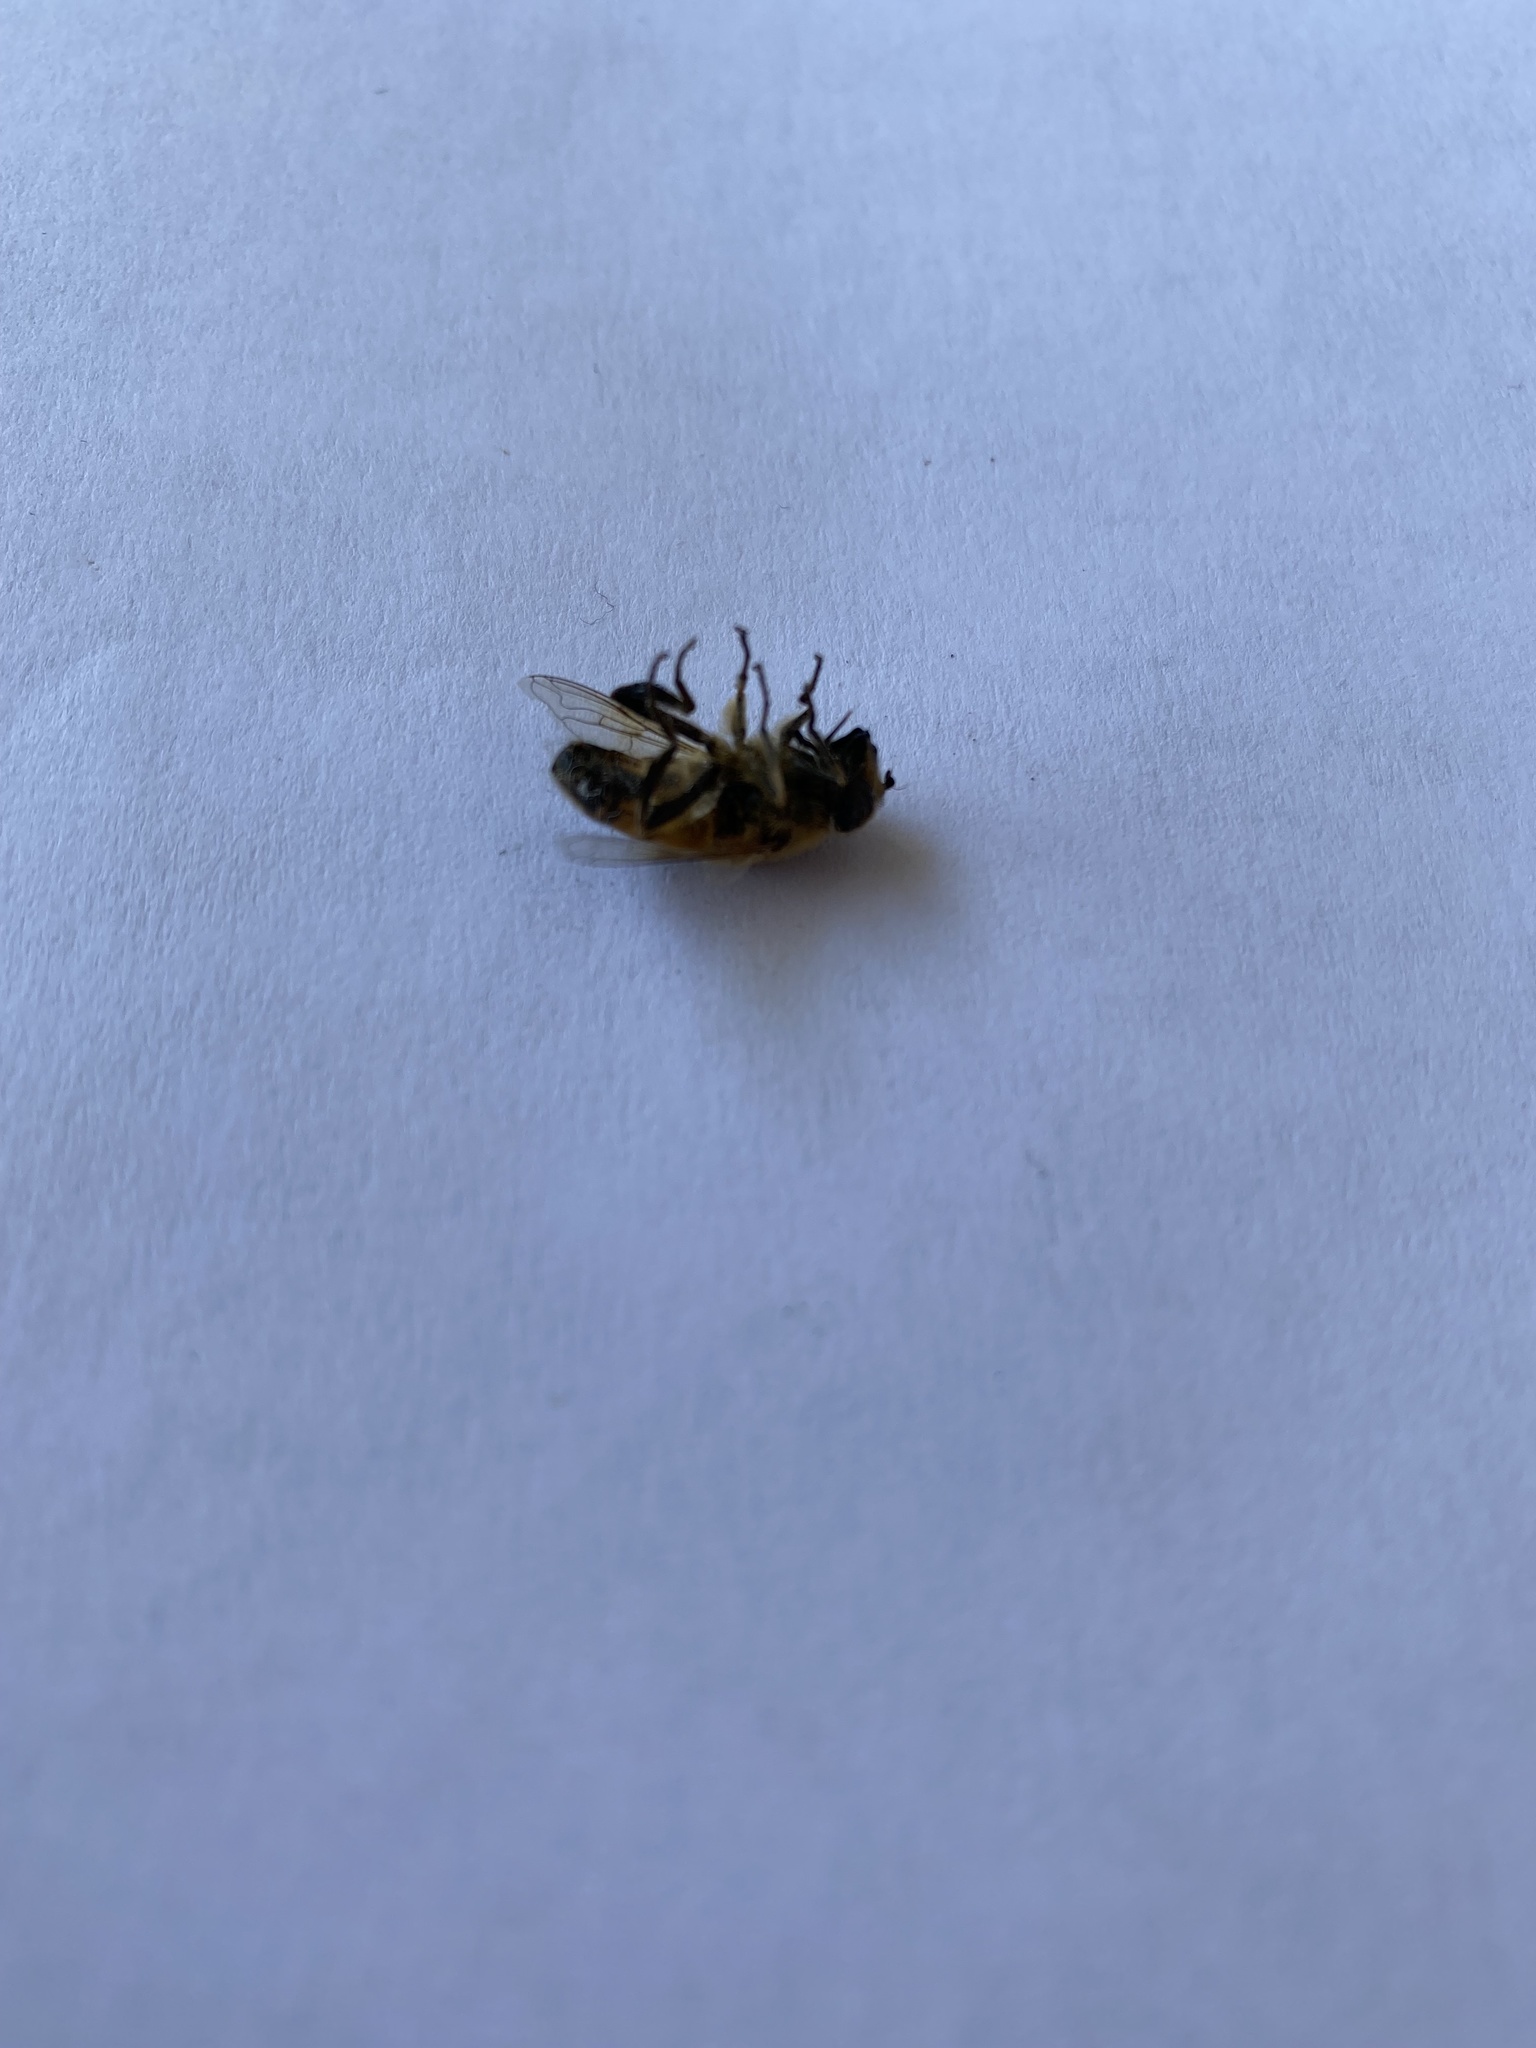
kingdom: Animalia
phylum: Arthropoda
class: Insecta
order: Diptera
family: Syrphidae
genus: Eristalis
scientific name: Eristalis tenax
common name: Drone fly
